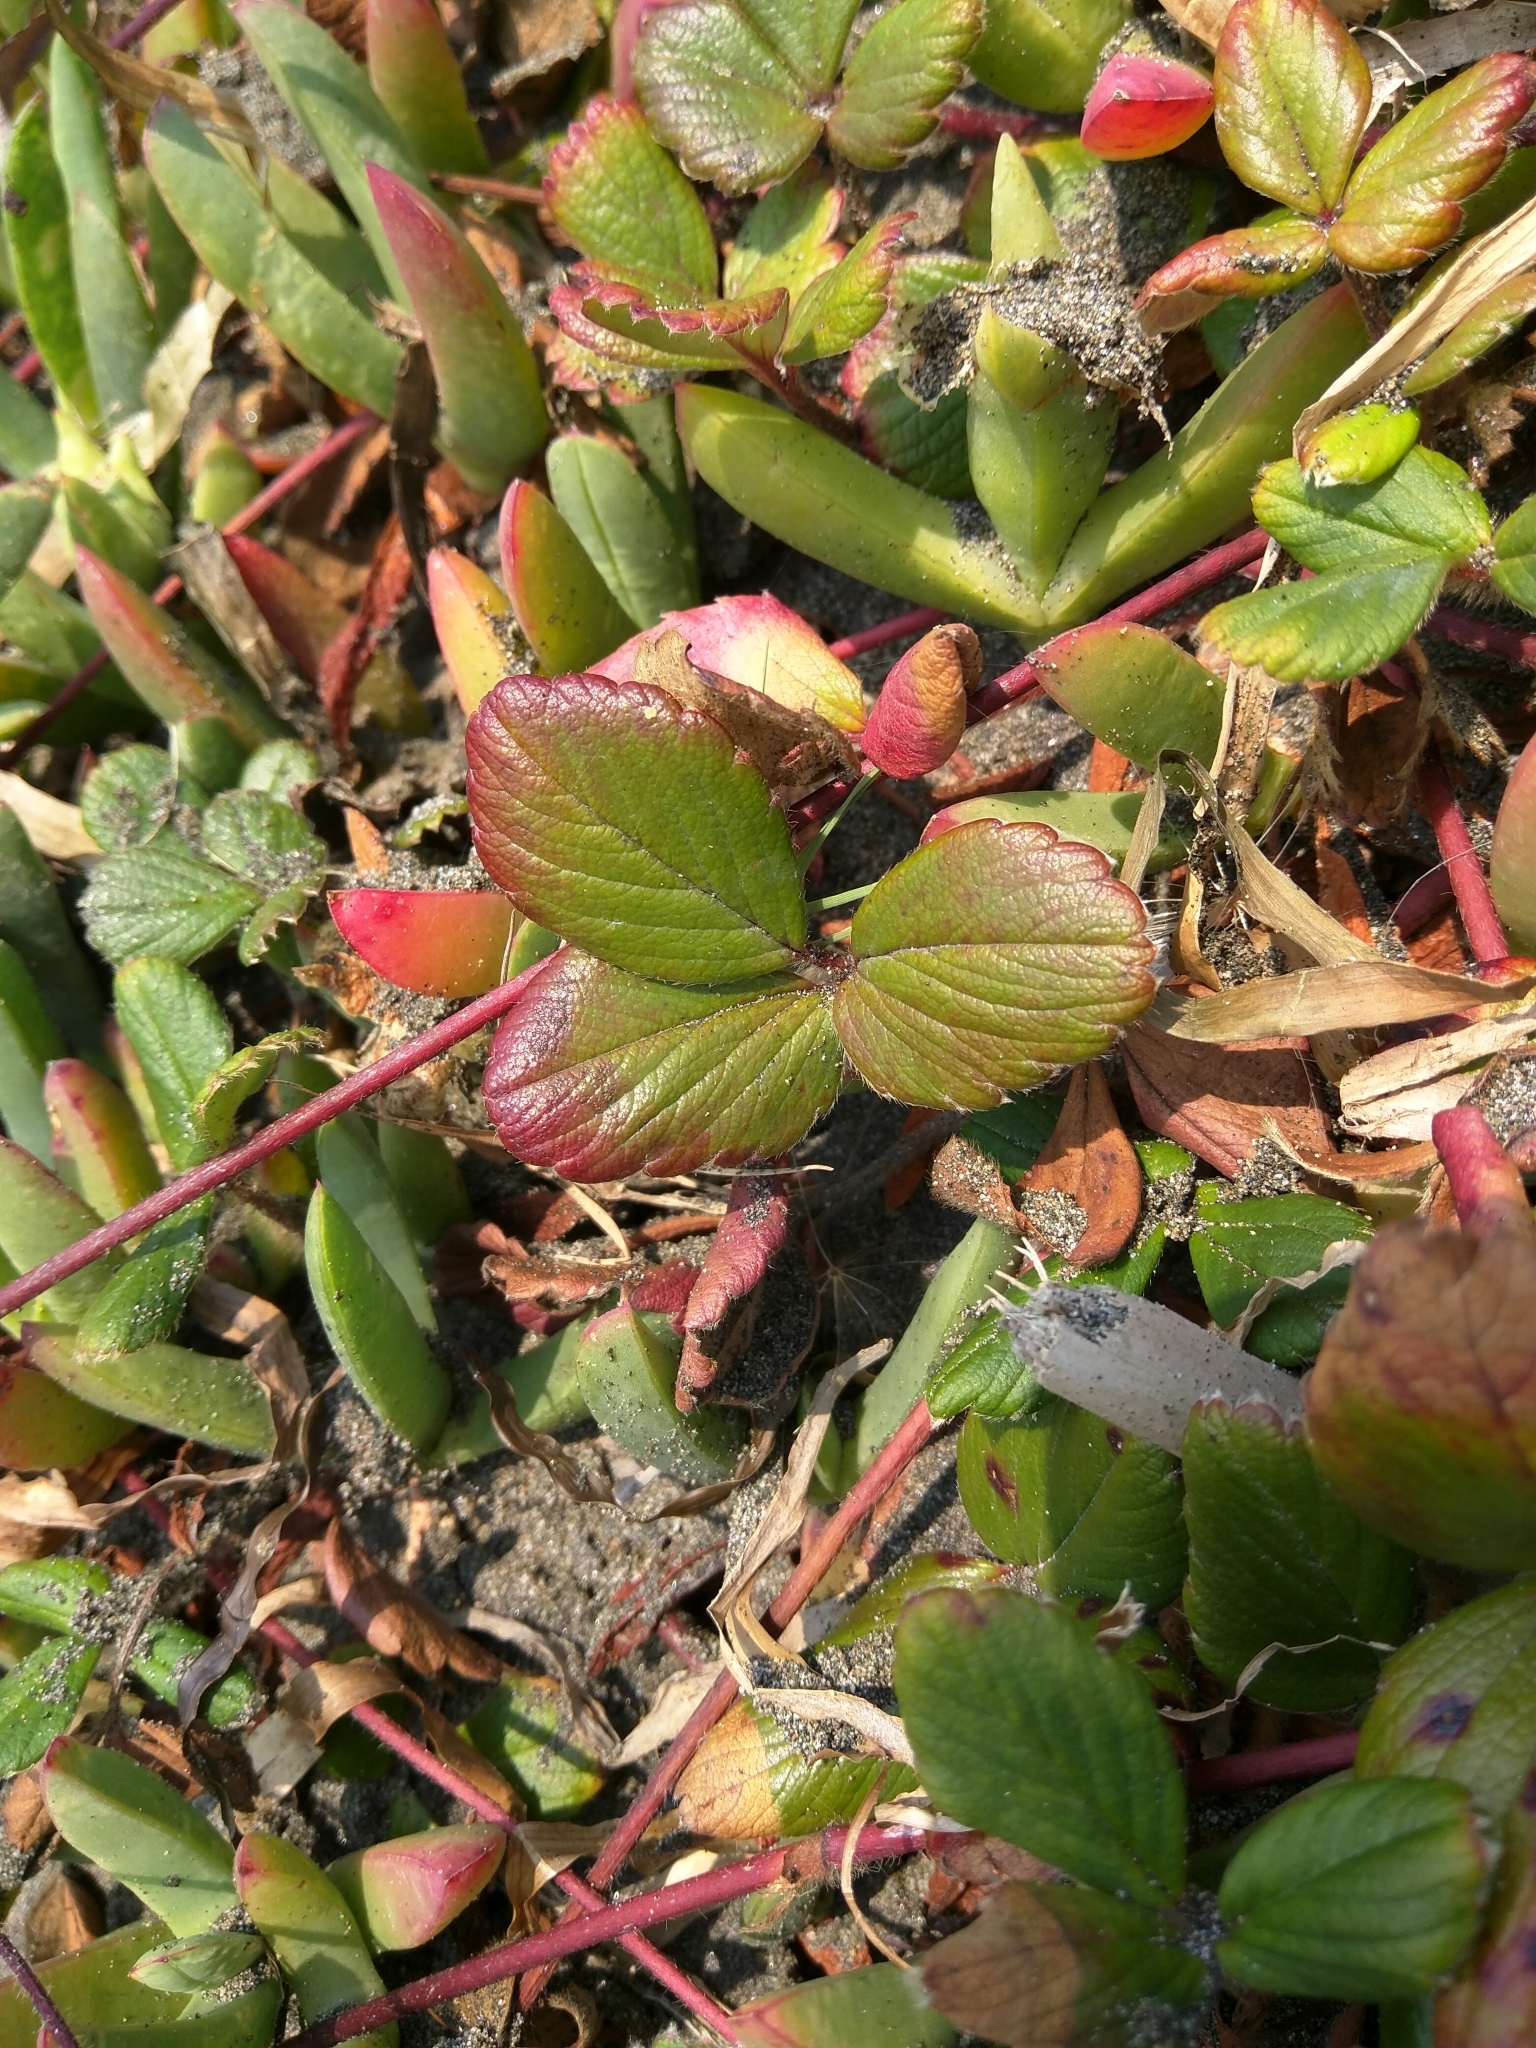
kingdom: Plantae
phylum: Tracheophyta
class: Magnoliopsida
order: Rosales
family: Rosaceae
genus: Fragaria
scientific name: Fragaria chiloensis
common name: Beach strawberry
